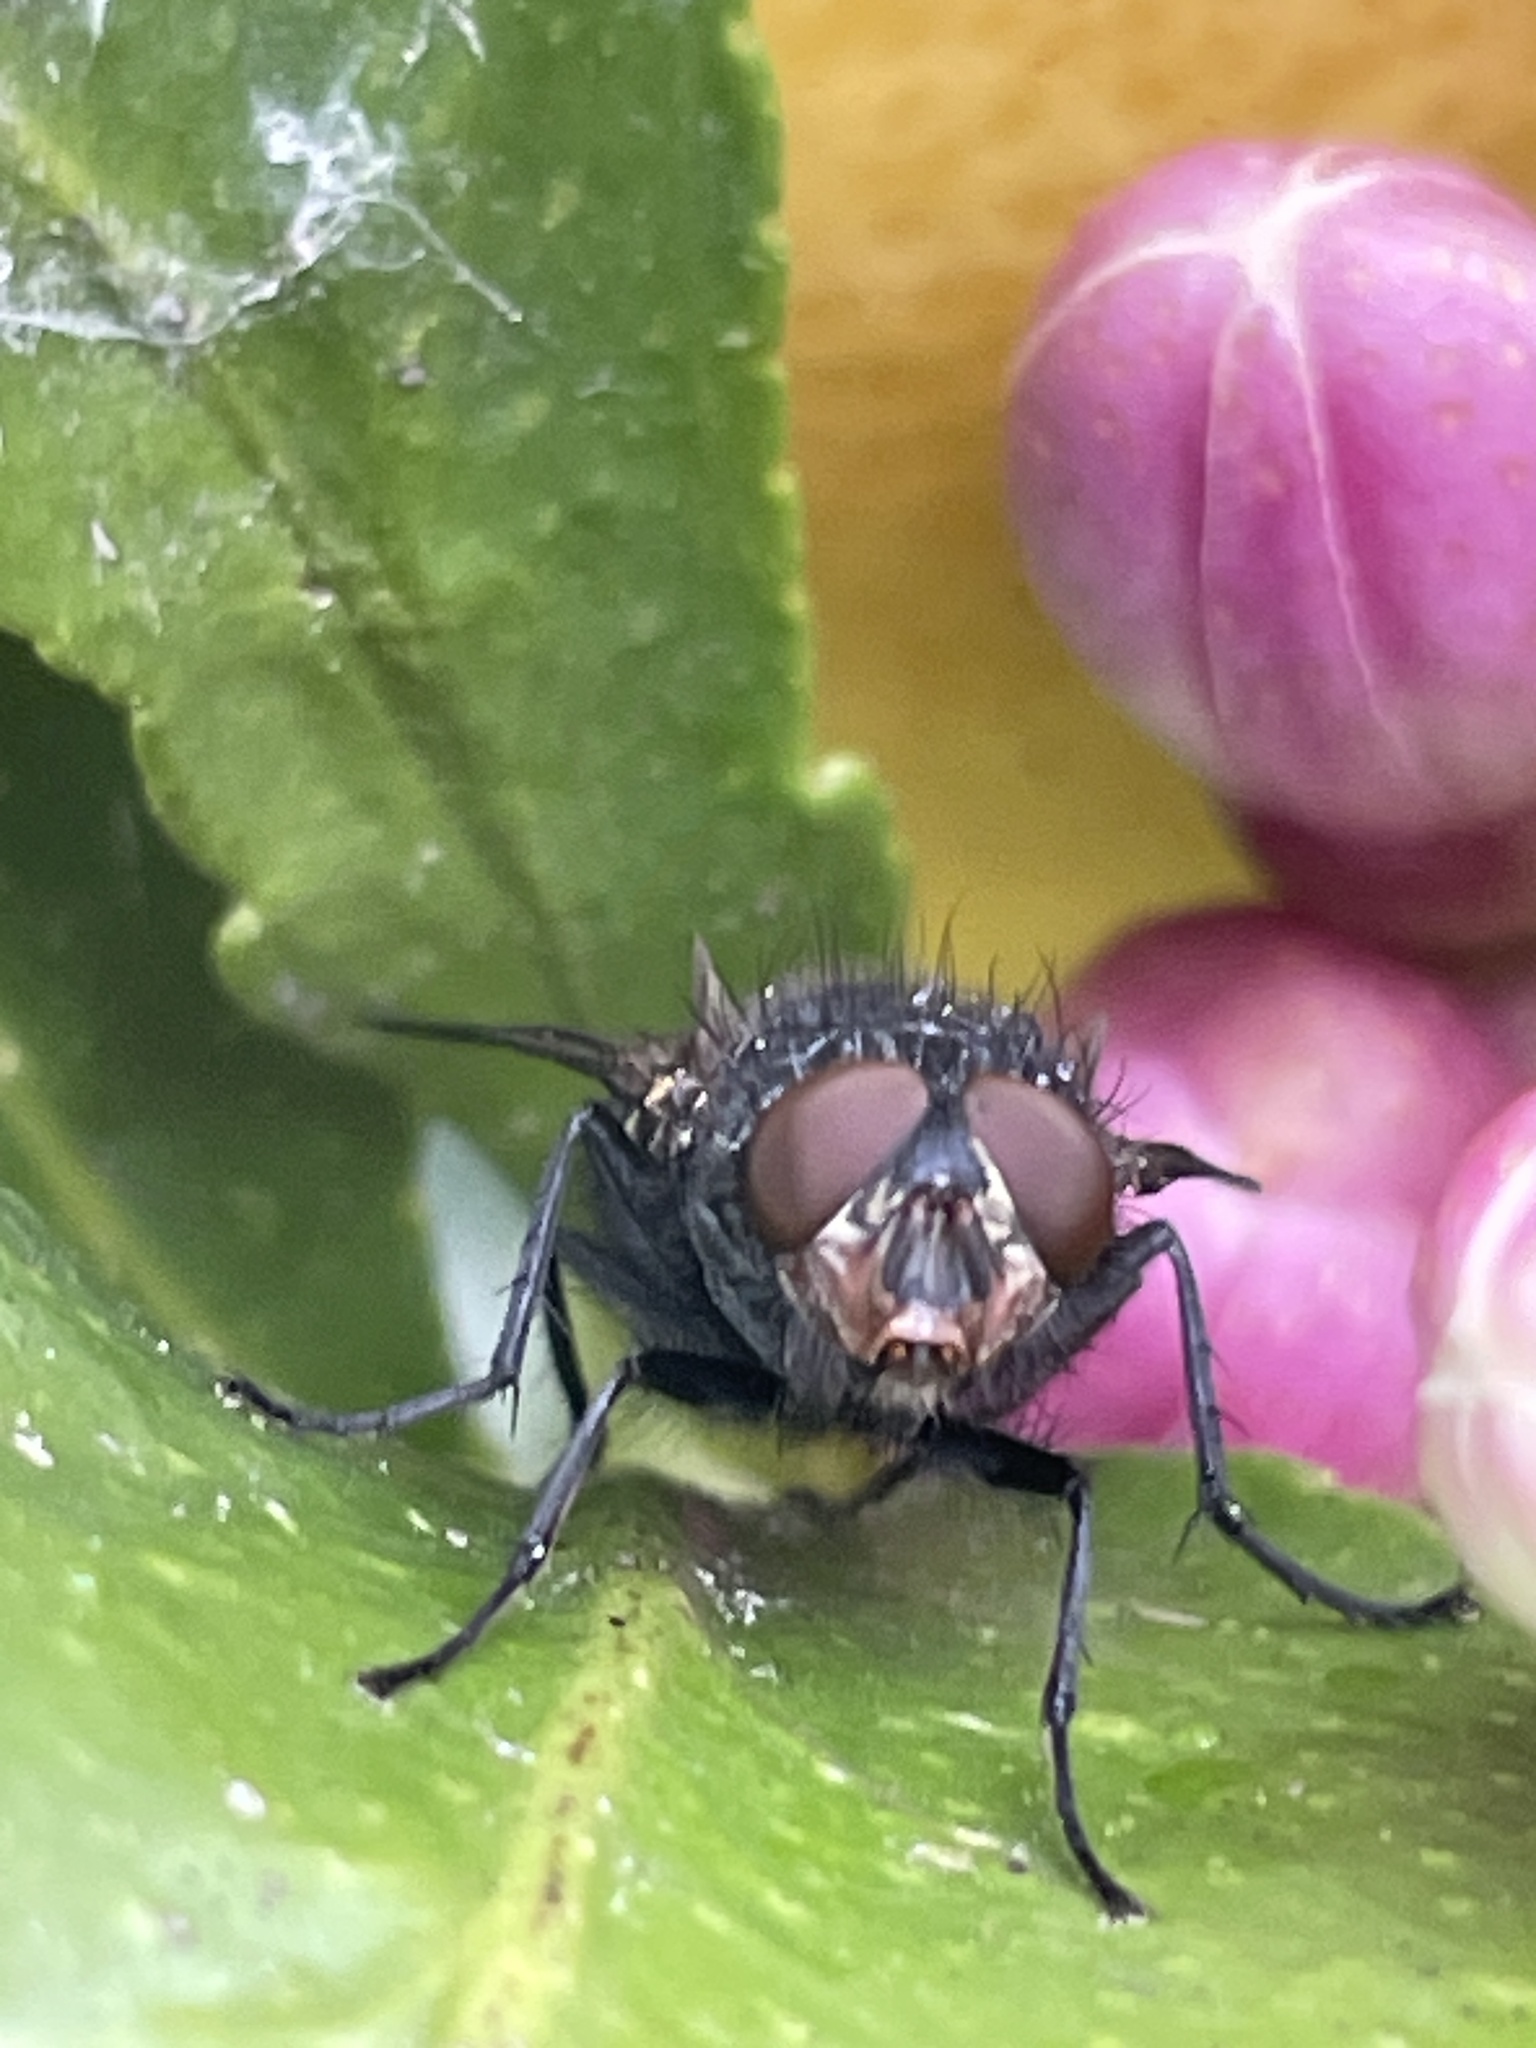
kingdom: Animalia
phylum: Arthropoda
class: Insecta
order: Diptera
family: Calliphoridae
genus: Calliphora
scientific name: Calliphora vicina
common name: Common blow flie
